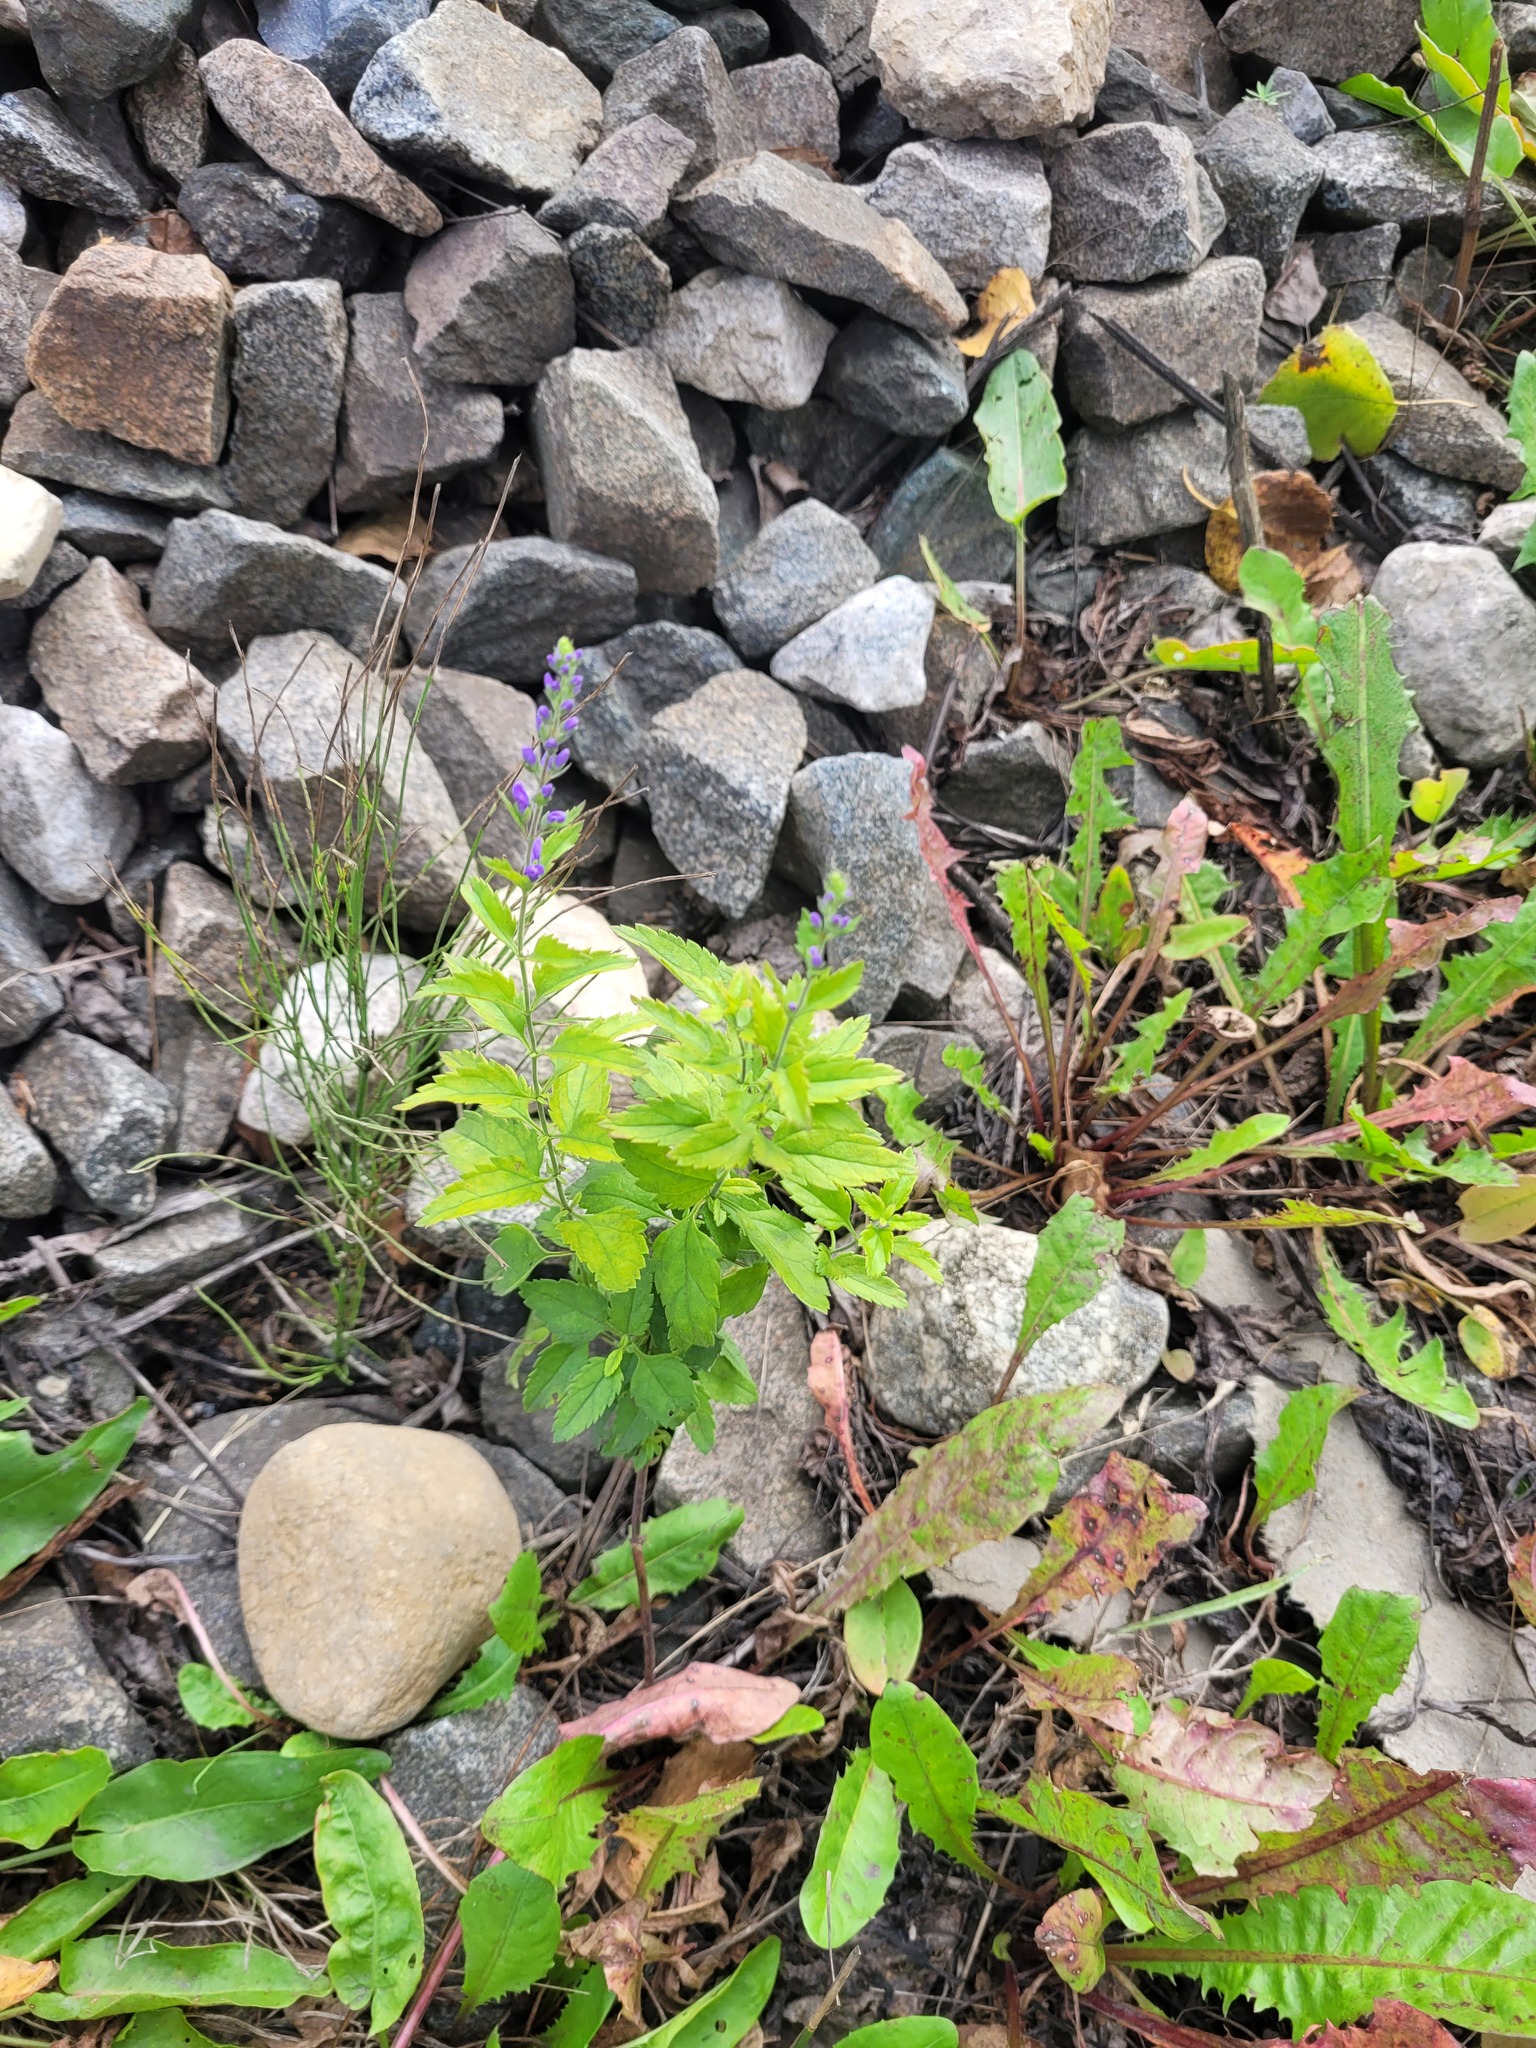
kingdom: Plantae
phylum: Tracheophyta
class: Magnoliopsida
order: Lamiales
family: Plantaginaceae
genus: Veronica
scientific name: Veronica longifolia
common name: Garden speedwell
